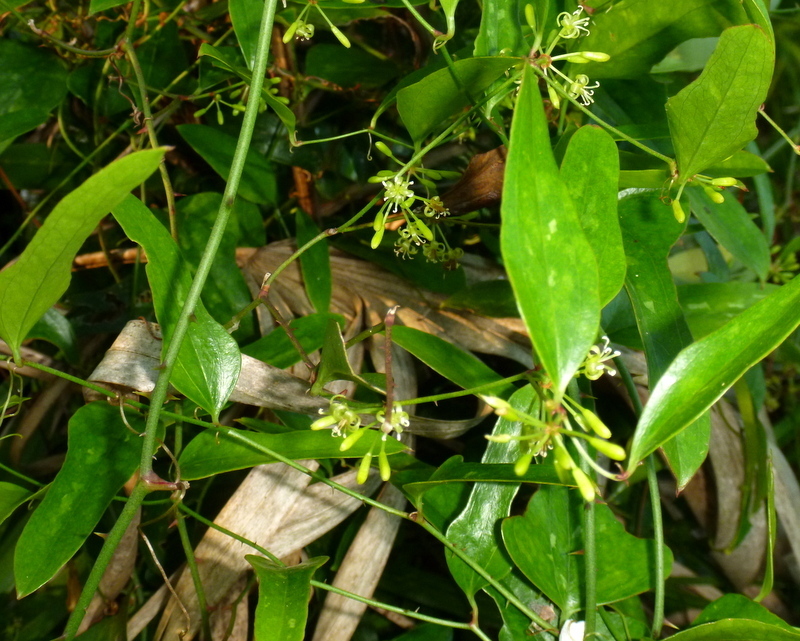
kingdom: Plantae
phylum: Tracheophyta
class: Liliopsida
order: Liliales
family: Smilacaceae
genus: Smilax
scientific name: Smilax auriculata
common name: Wild bamboo
